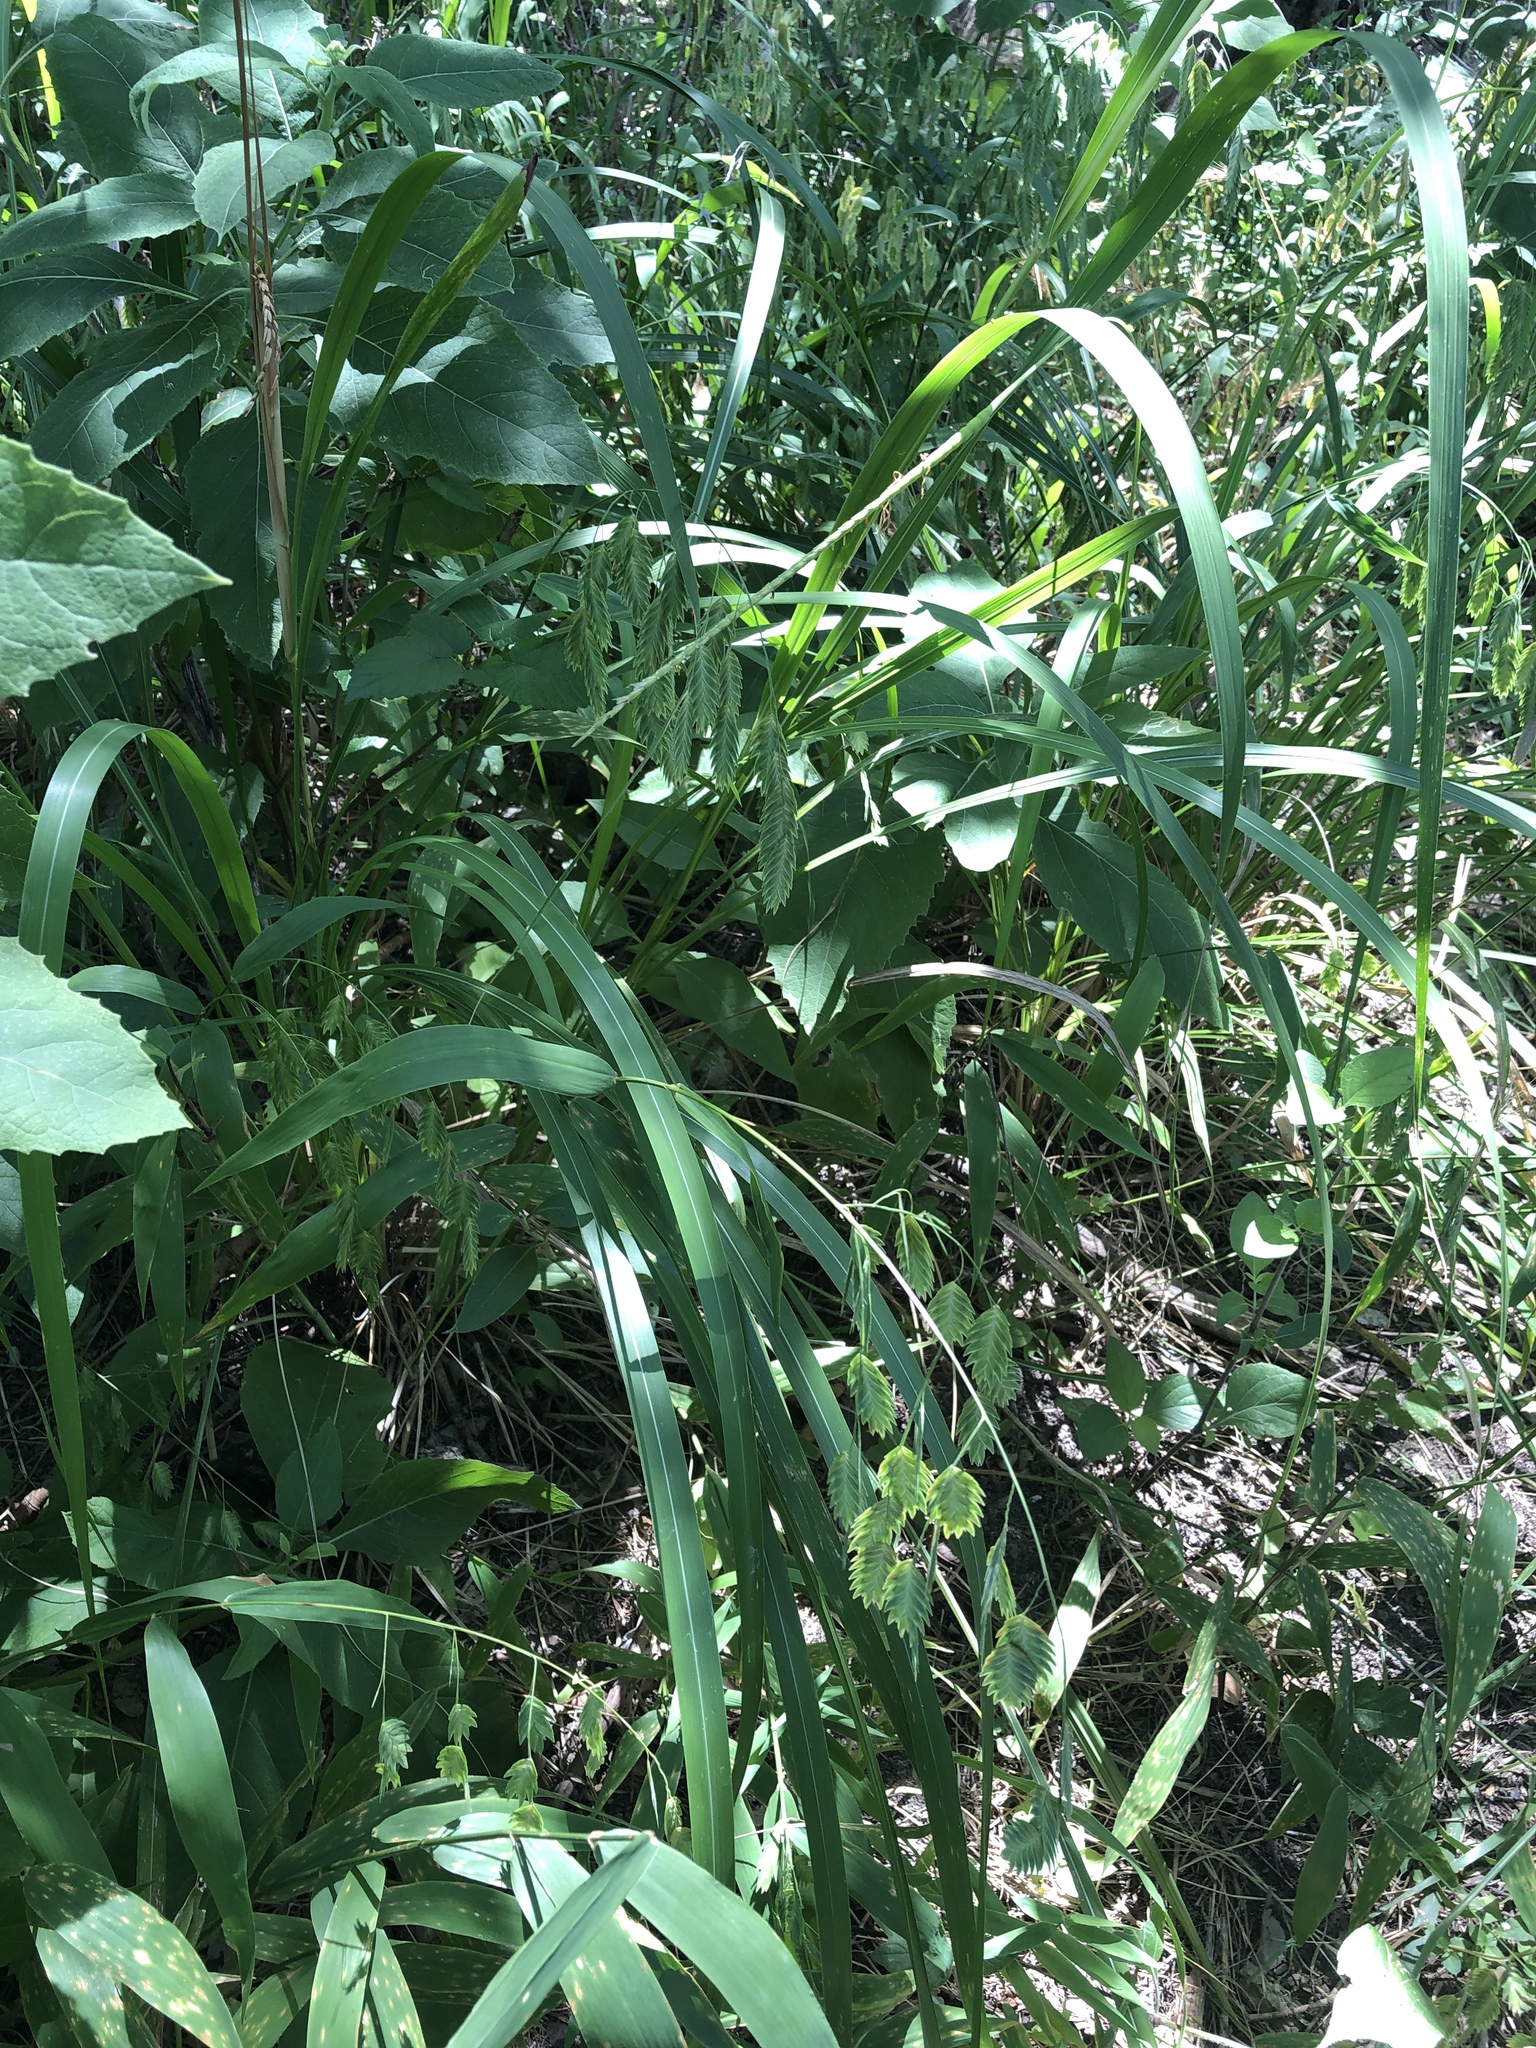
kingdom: Plantae
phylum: Tracheophyta
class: Liliopsida
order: Poales
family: Poaceae
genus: Chasmanthium
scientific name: Chasmanthium latifolium
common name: Broad-leaved chasmanthium
